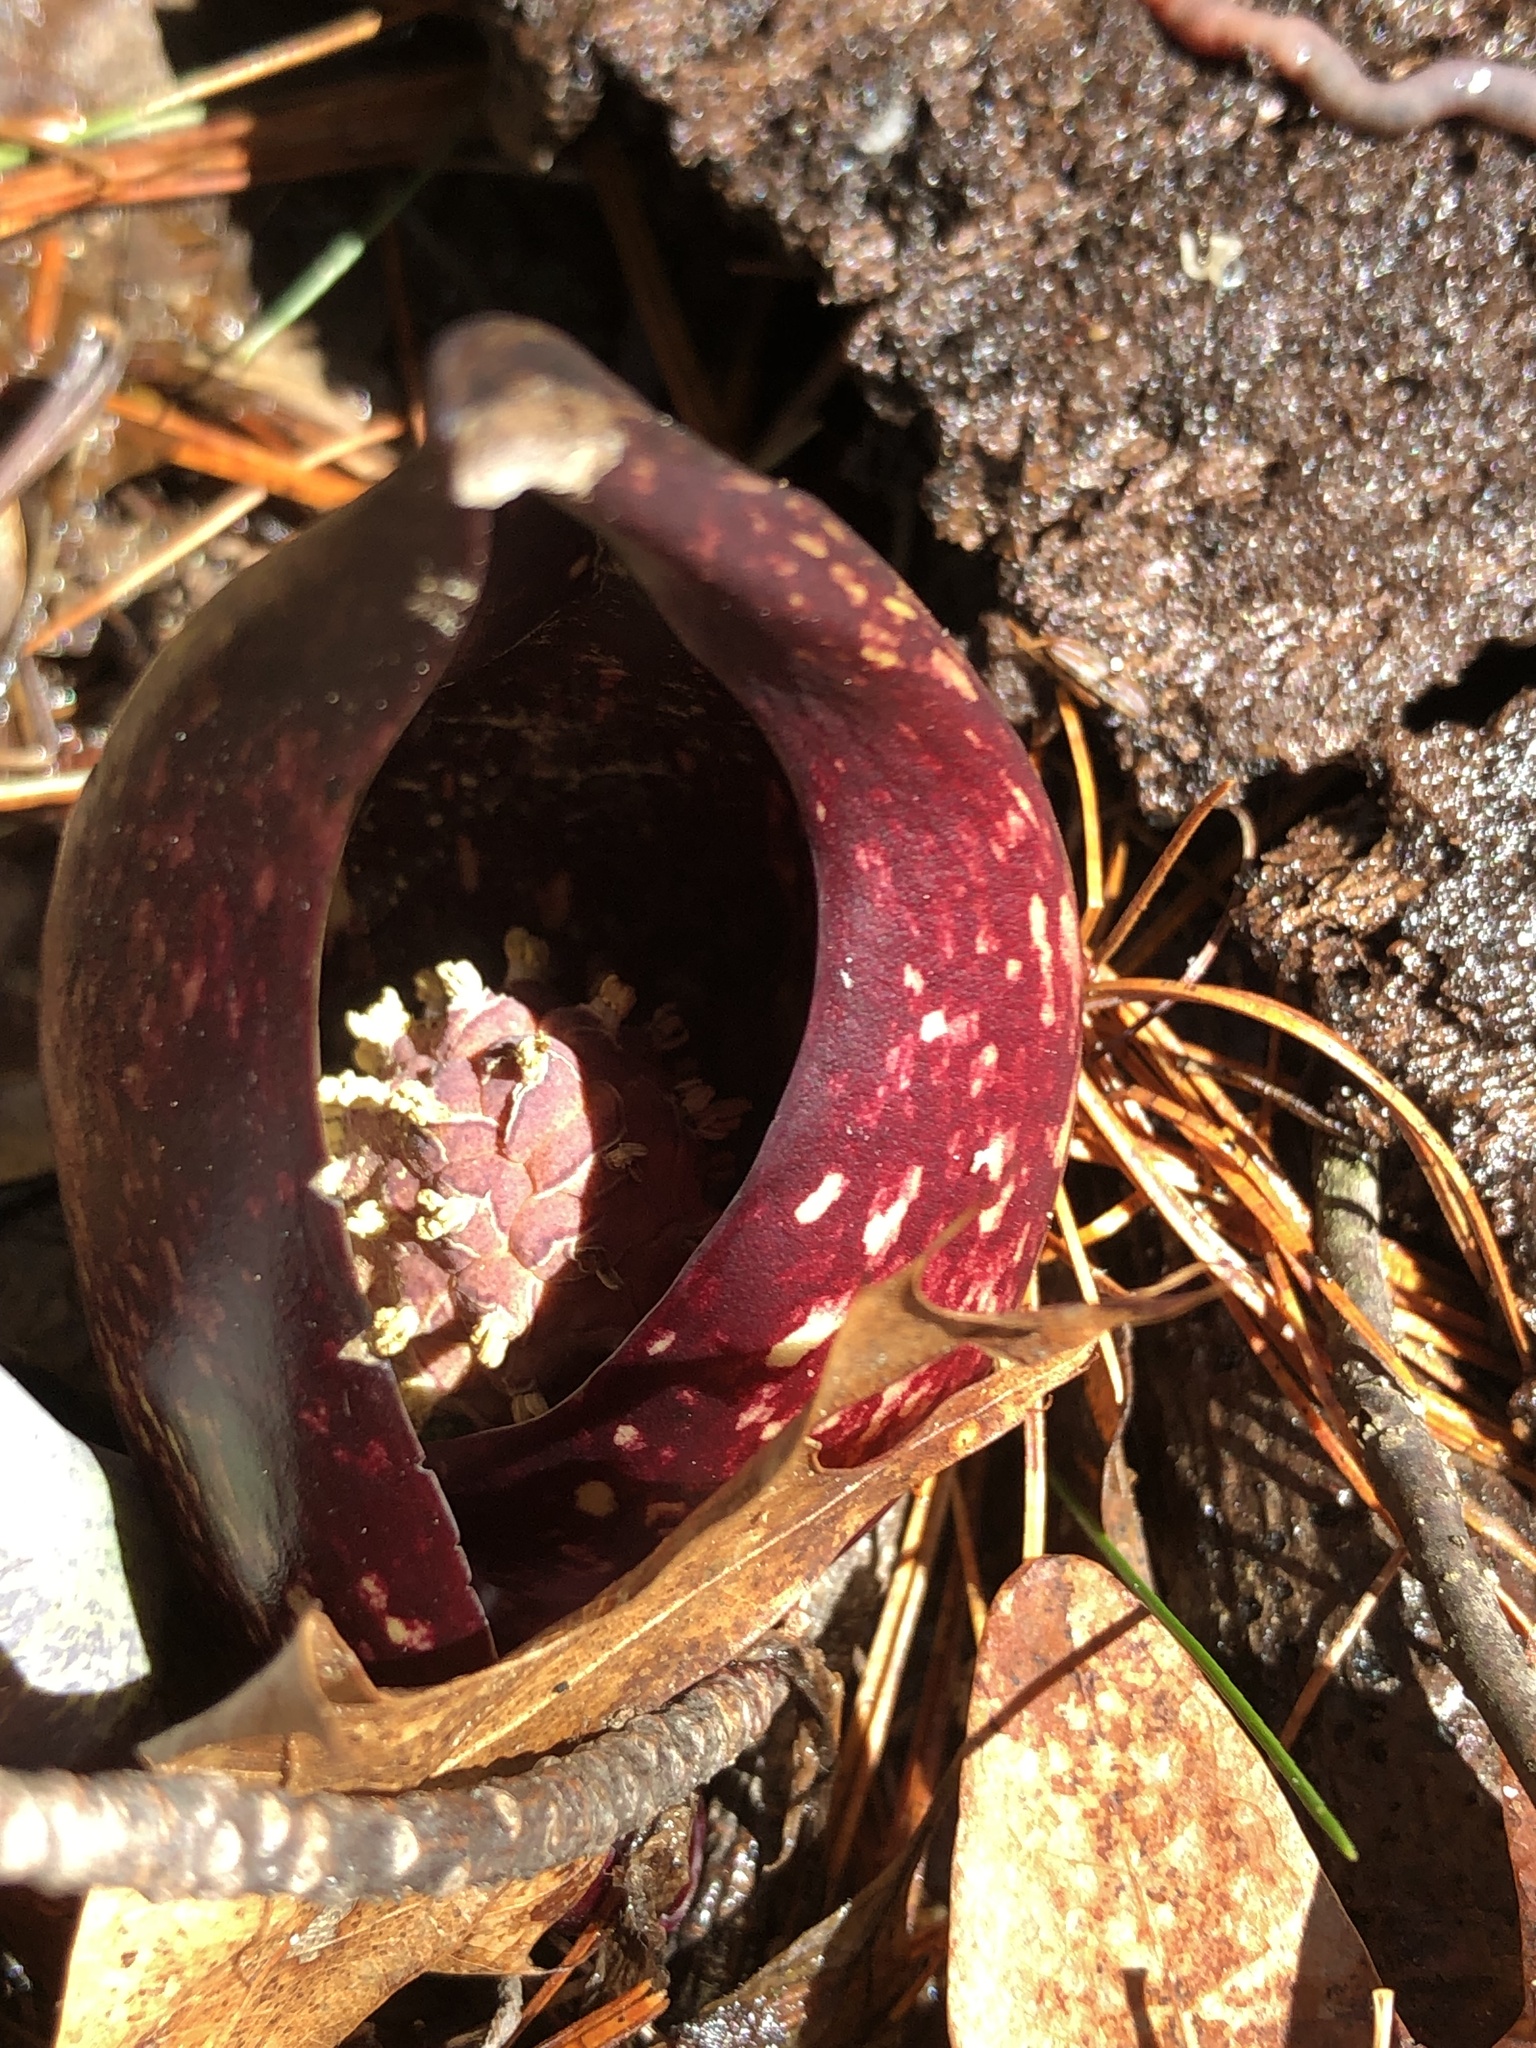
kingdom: Plantae
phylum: Tracheophyta
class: Liliopsida
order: Alismatales
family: Araceae
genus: Symplocarpus
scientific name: Symplocarpus foetidus
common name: Eastern skunk cabbage
